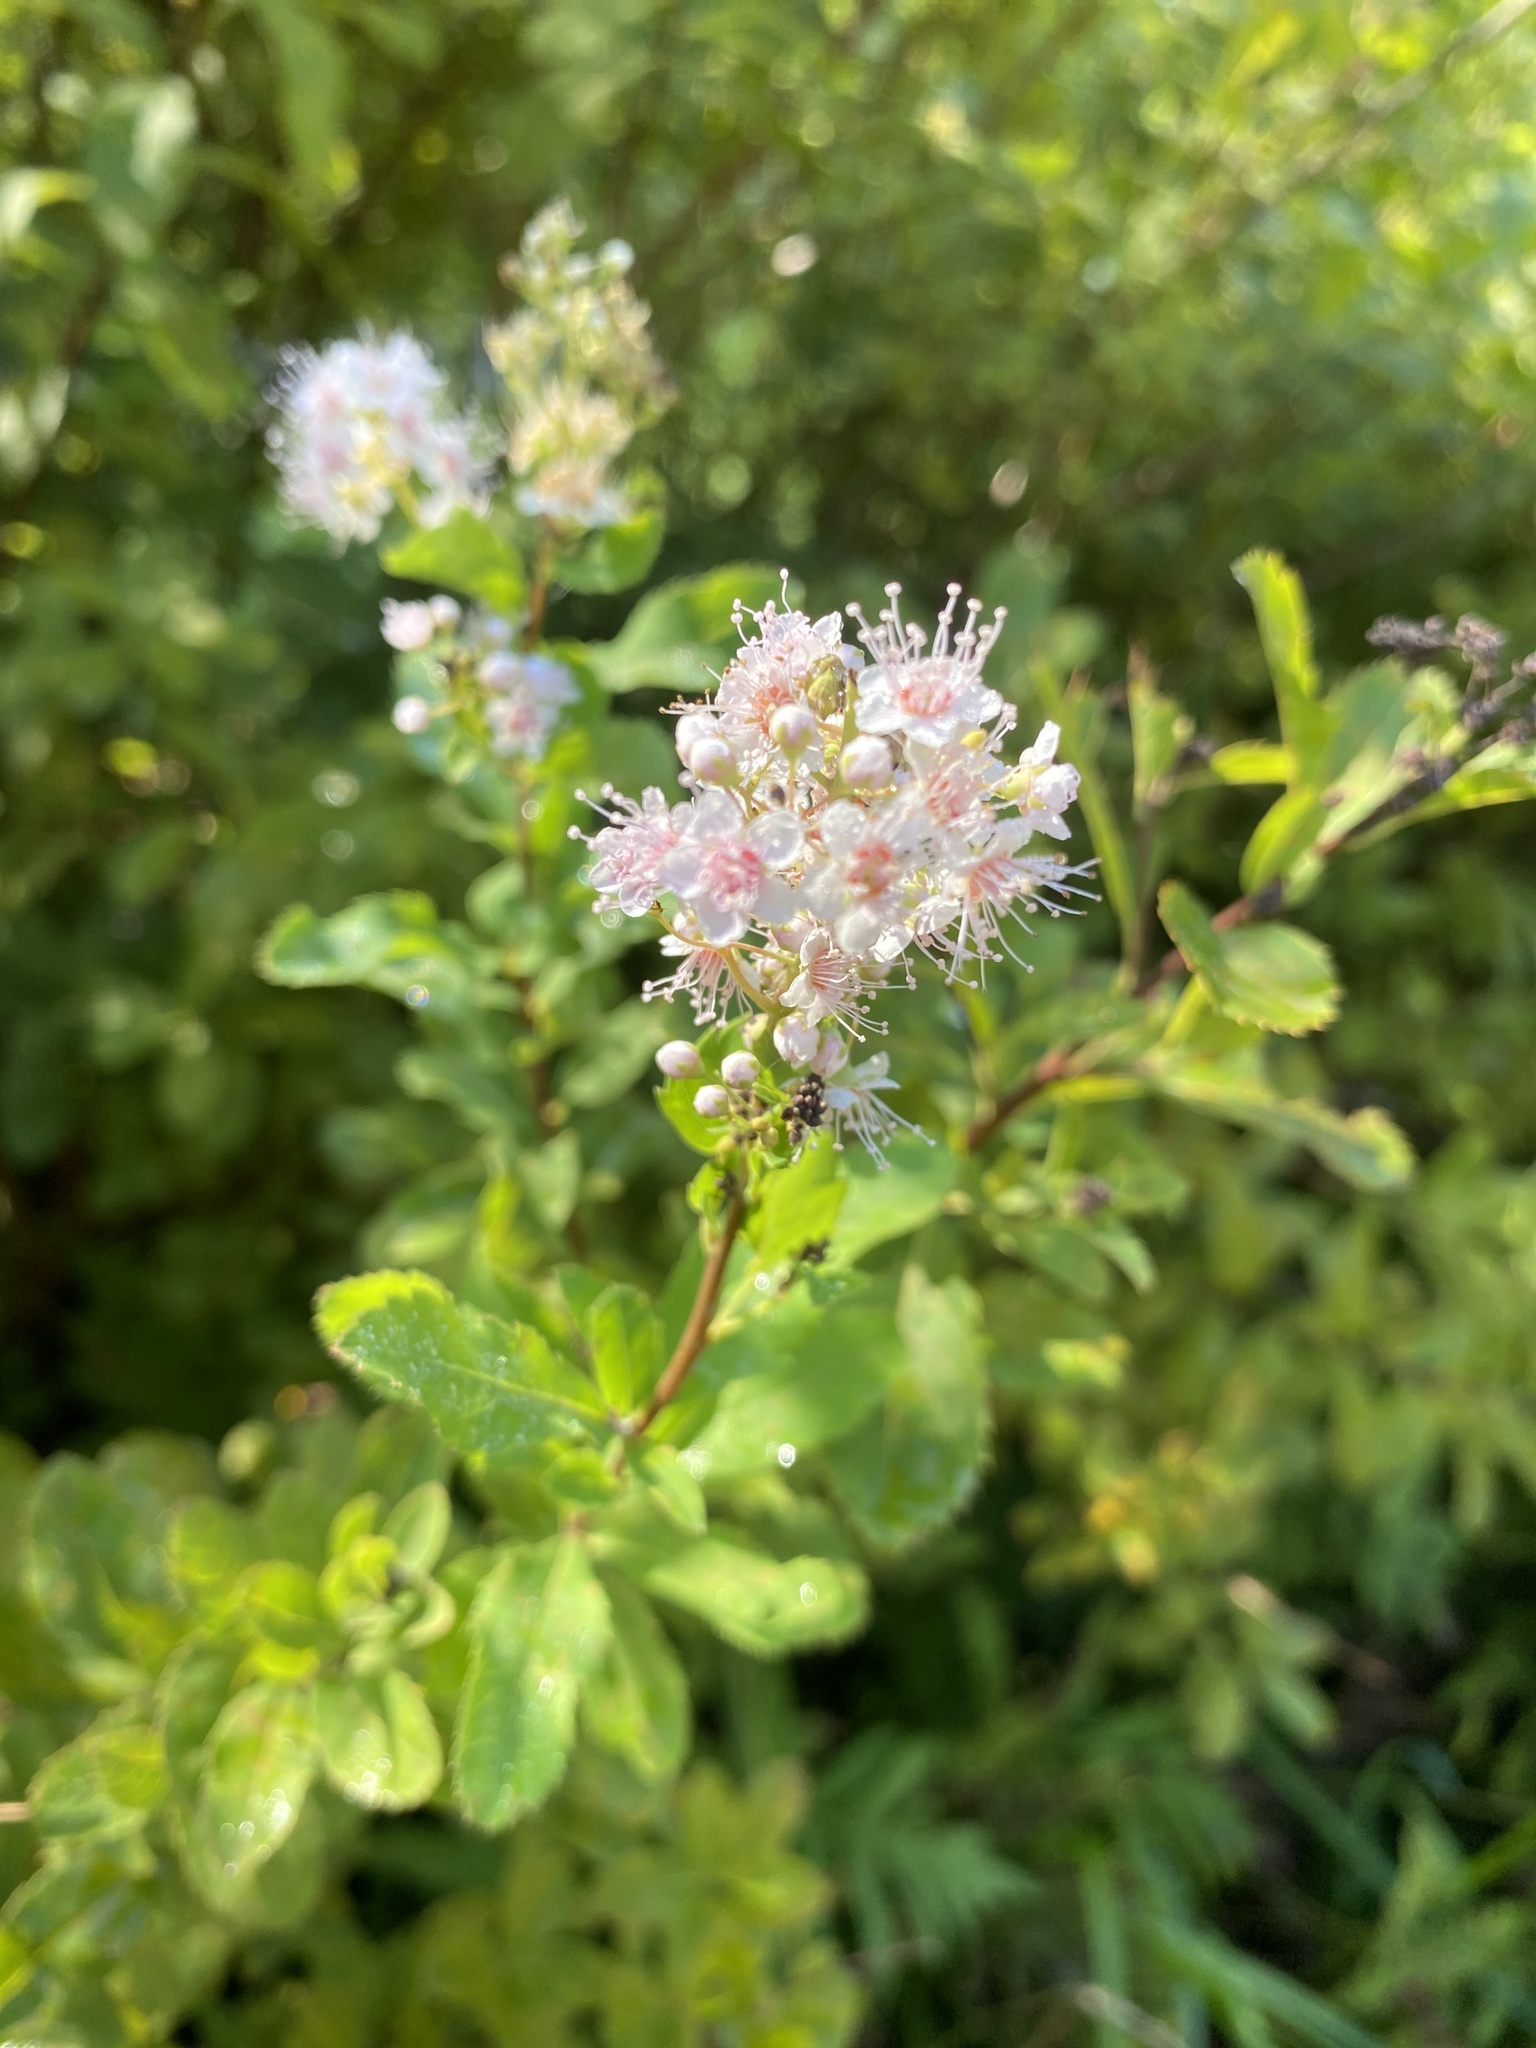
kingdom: Plantae
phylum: Tracheophyta
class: Magnoliopsida
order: Rosales
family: Rosaceae
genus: Spiraea
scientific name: Spiraea alba
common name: Pale bridewort
